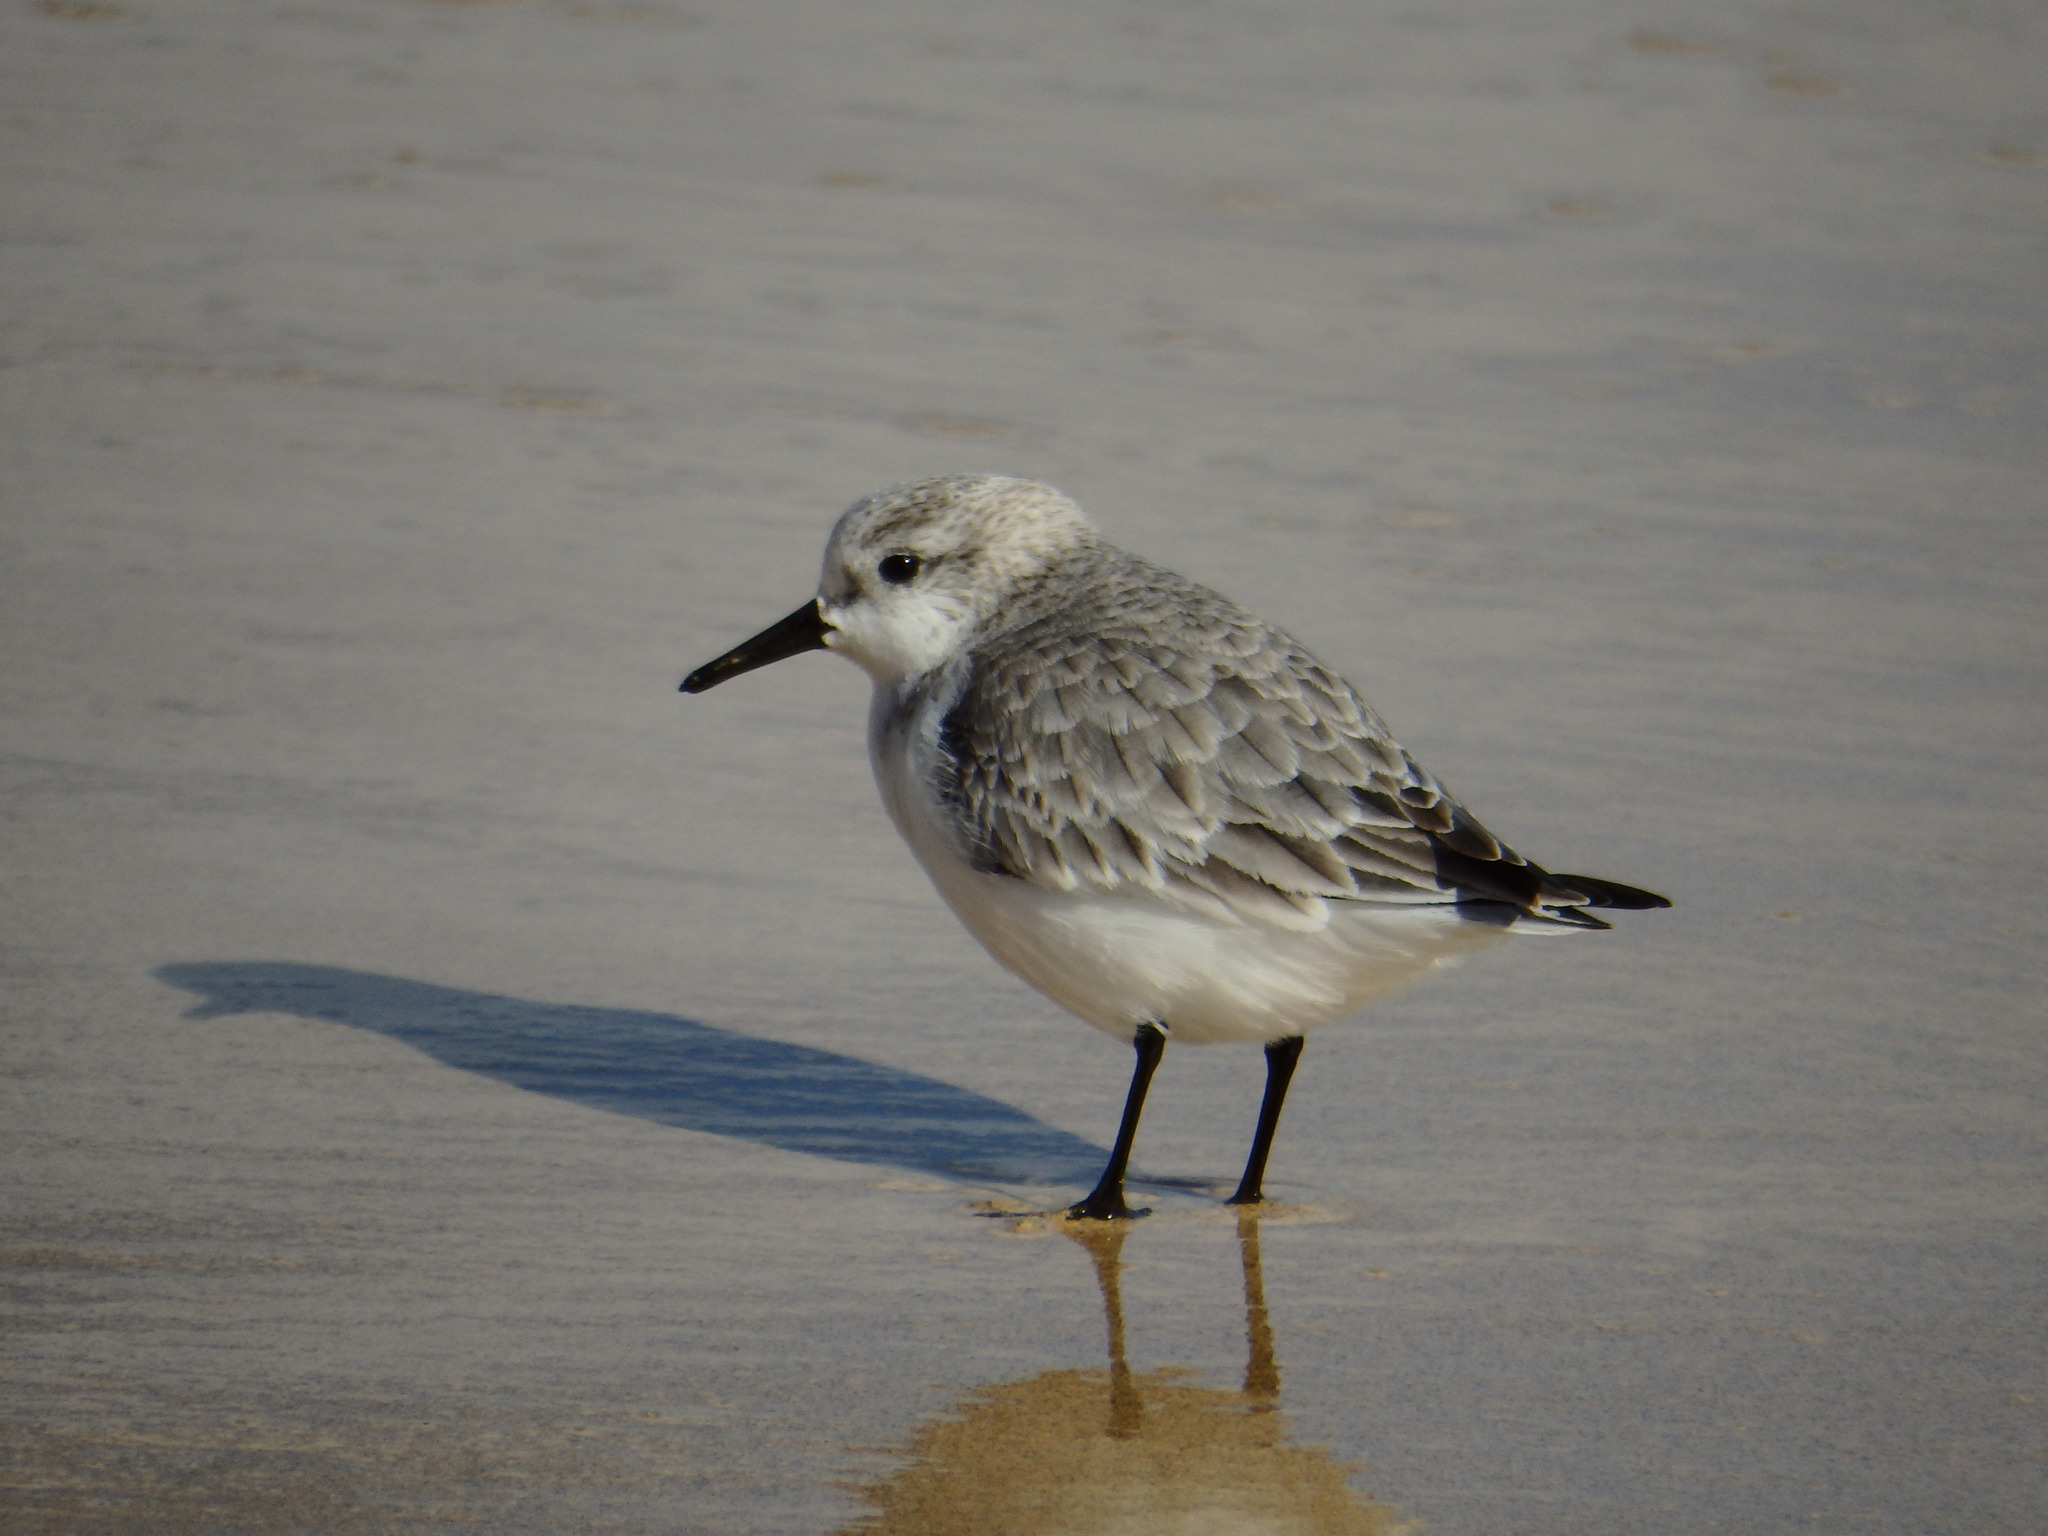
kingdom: Animalia
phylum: Chordata
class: Aves
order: Charadriiformes
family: Scolopacidae
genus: Calidris
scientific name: Calidris alba
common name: Sanderling
